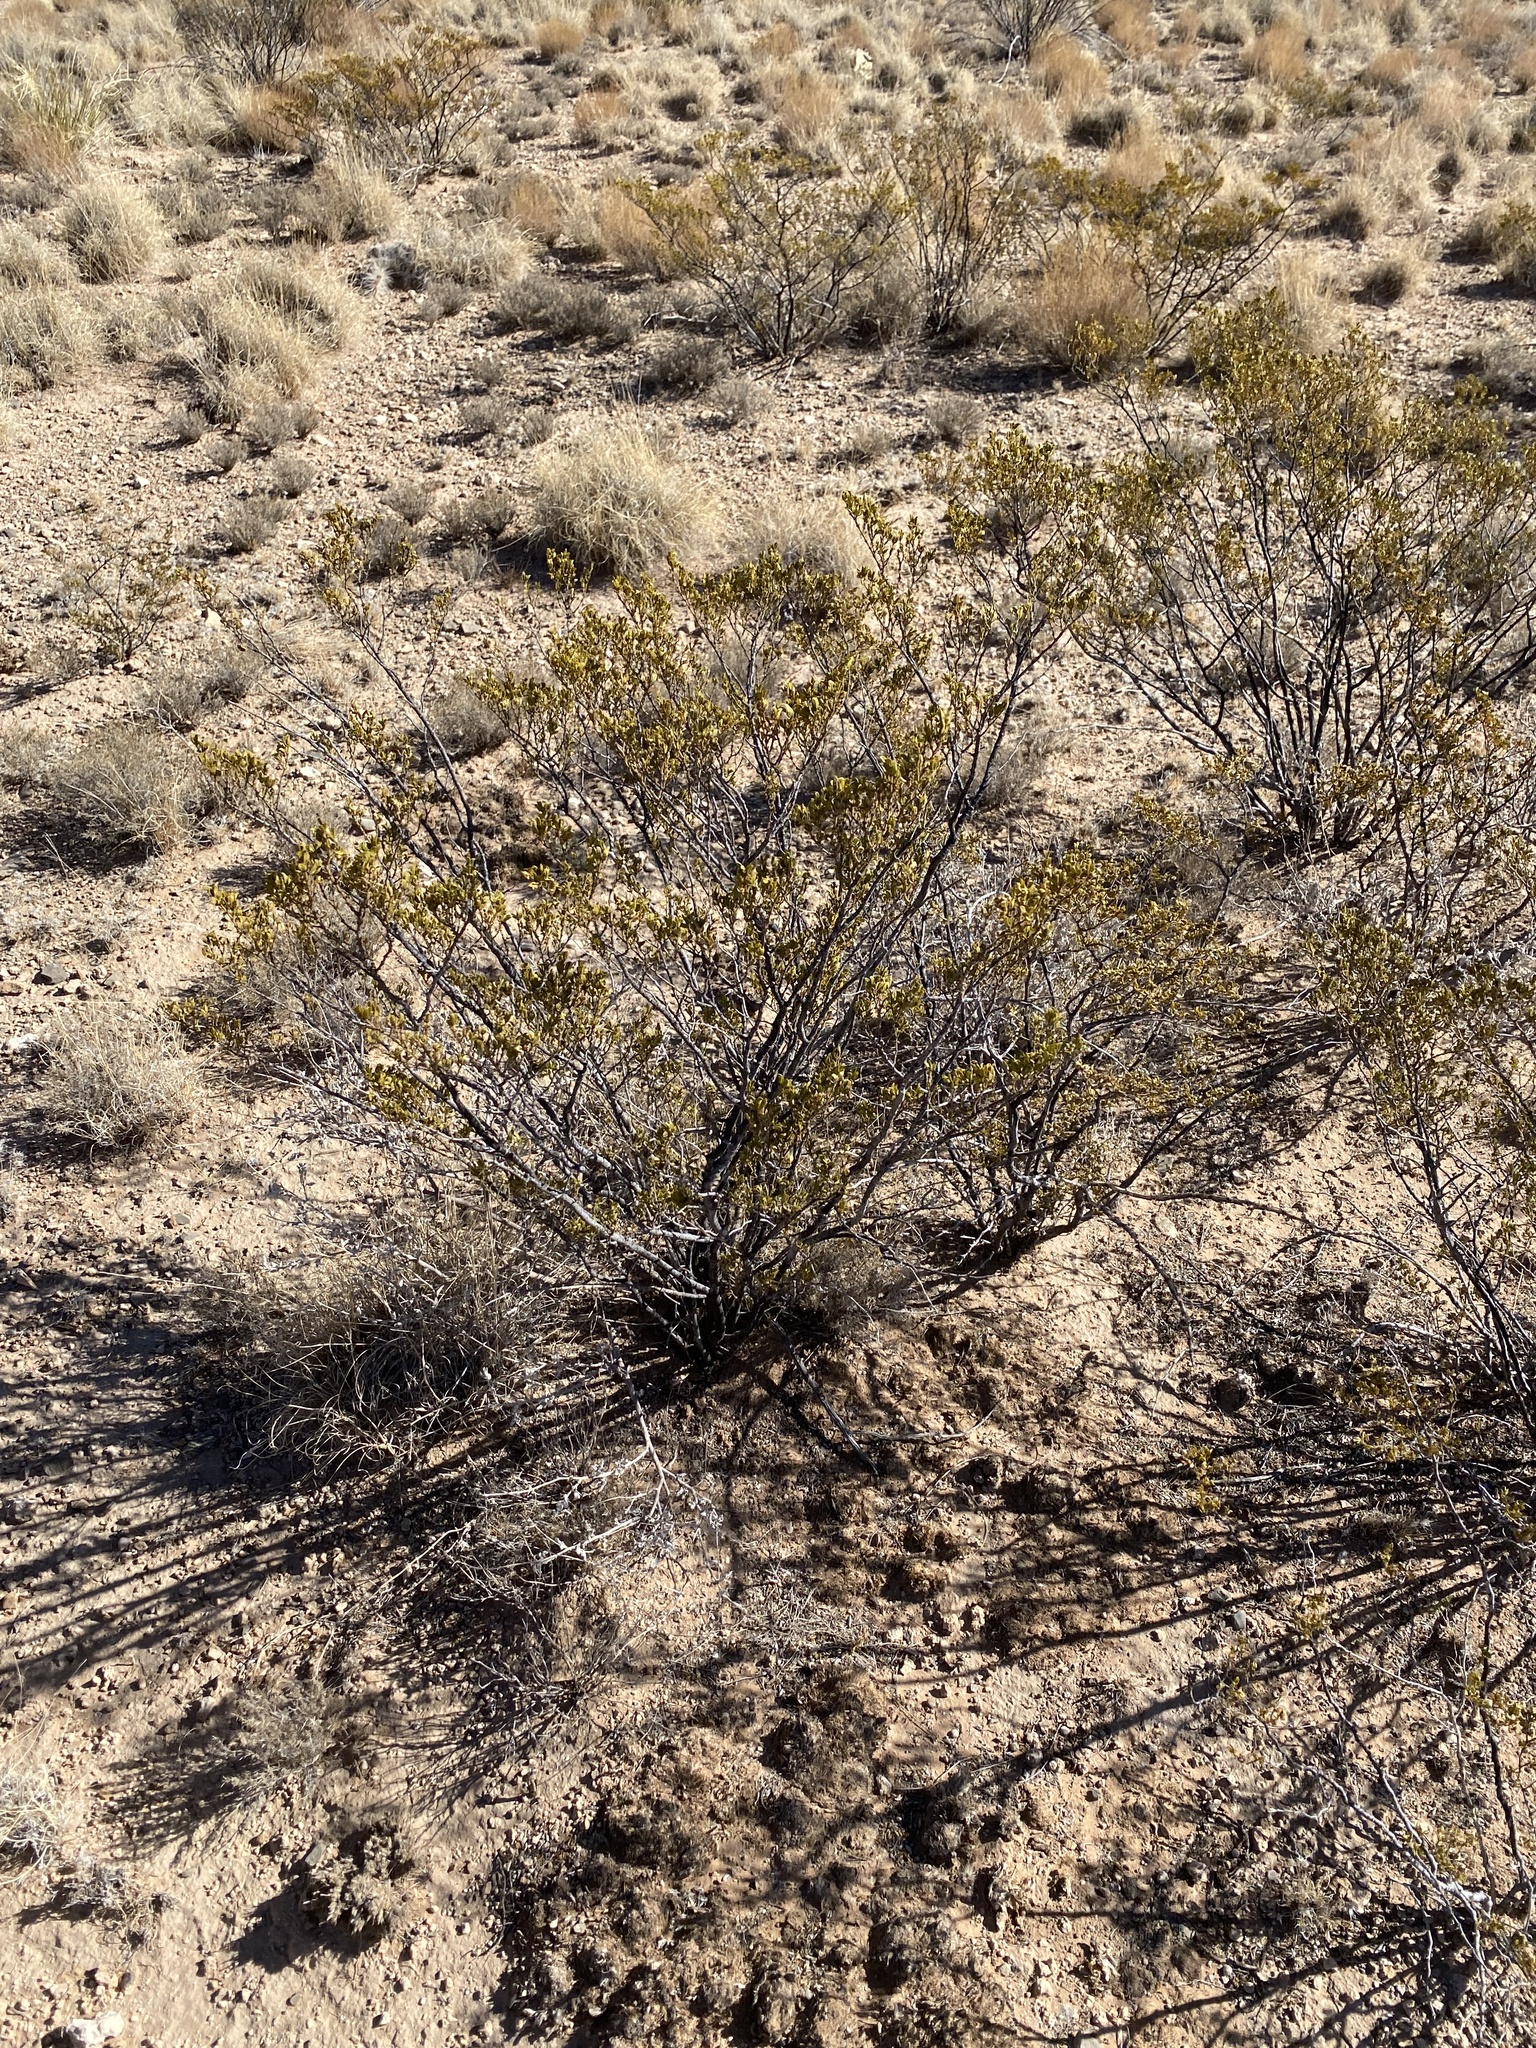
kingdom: Plantae
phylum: Tracheophyta
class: Magnoliopsida
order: Zygophyllales
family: Zygophyllaceae
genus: Larrea
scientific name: Larrea tridentata
